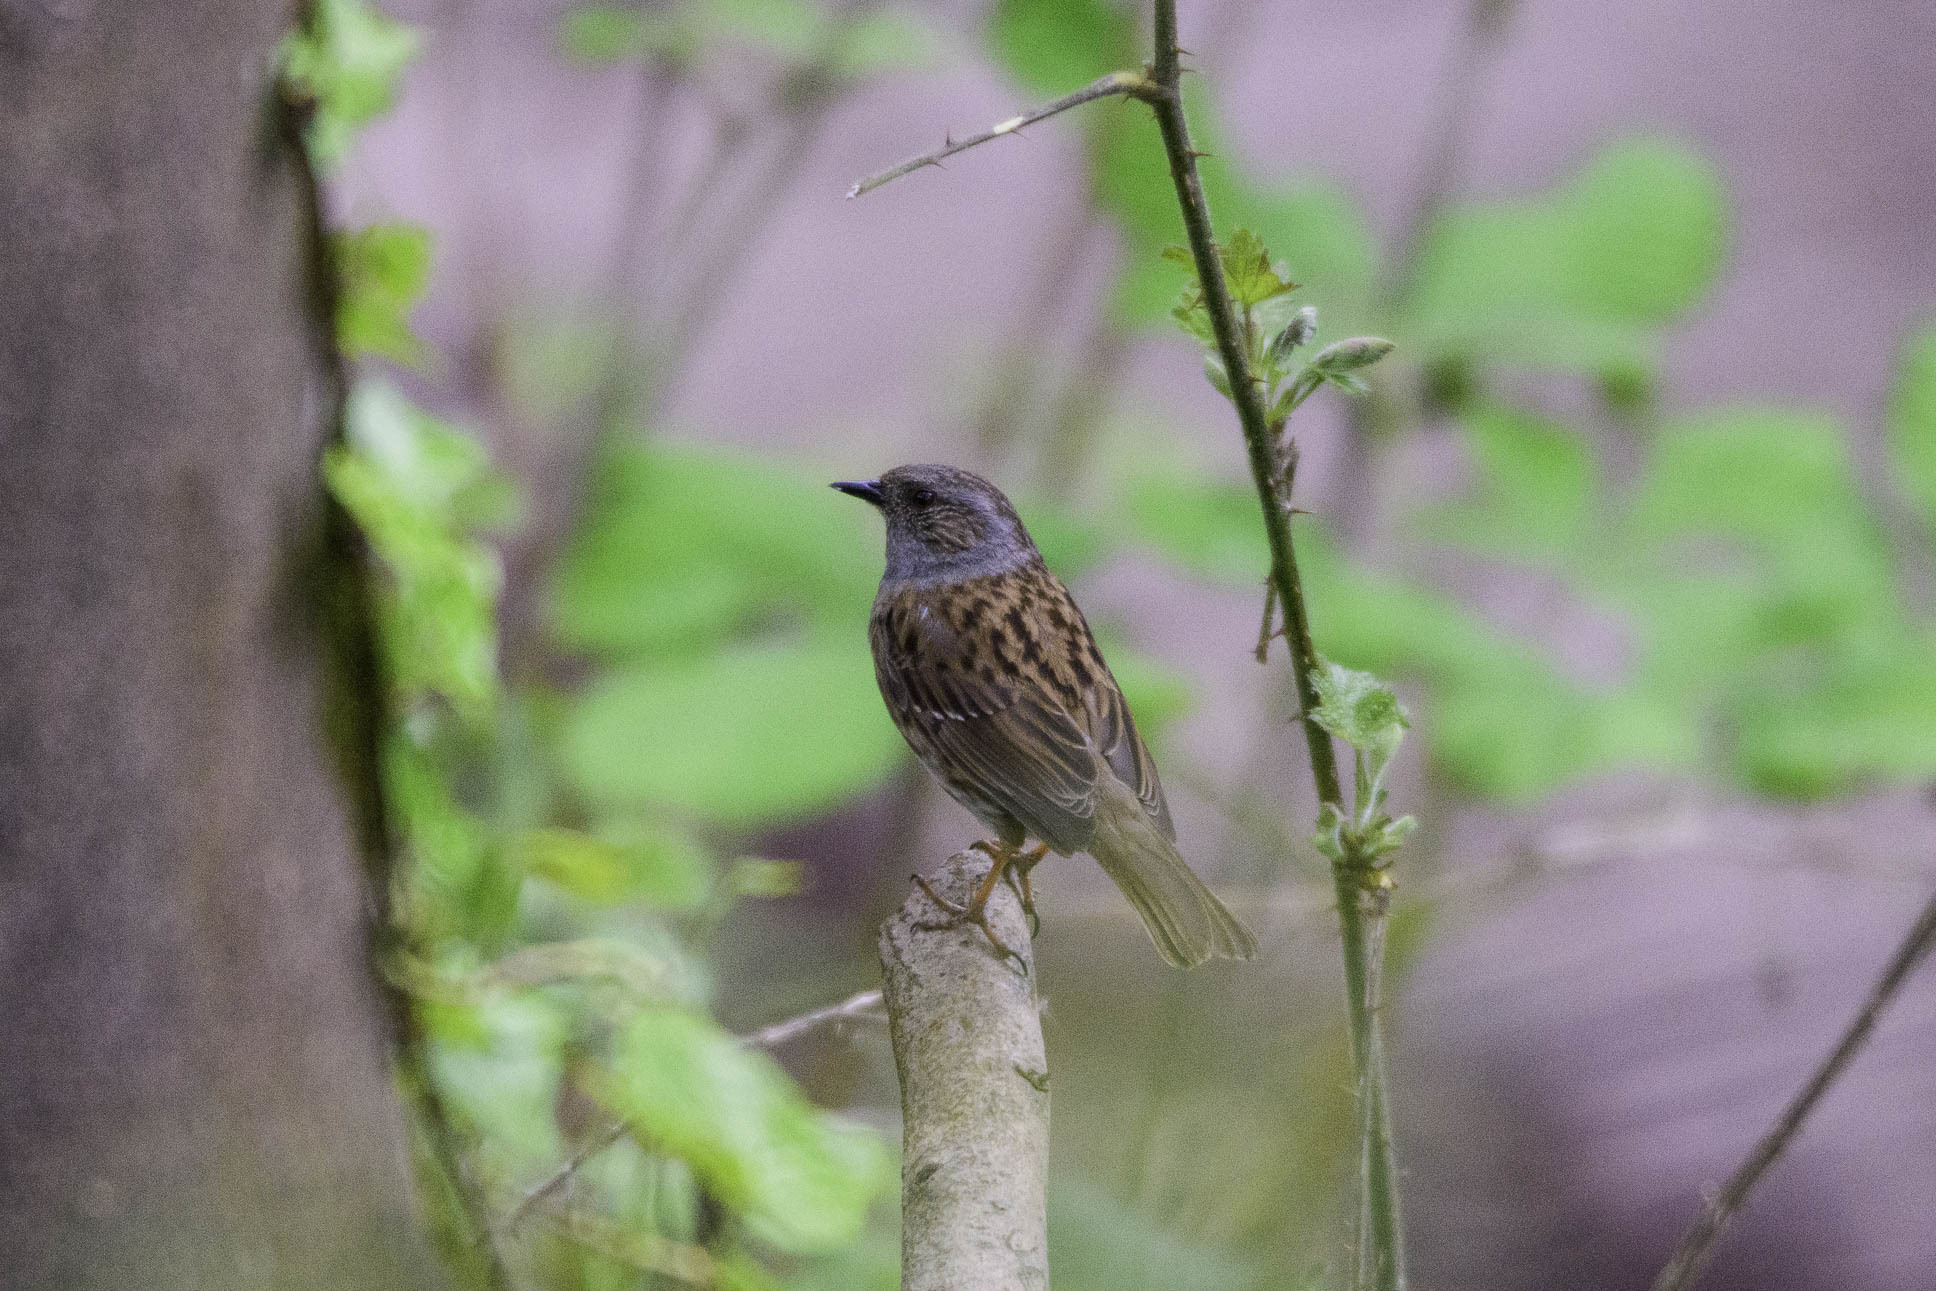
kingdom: Animalia
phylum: Chordata
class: Aves
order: Passeriformes
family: Prunellidae
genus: Prunella
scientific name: Prunella modularis
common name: Dunnock
